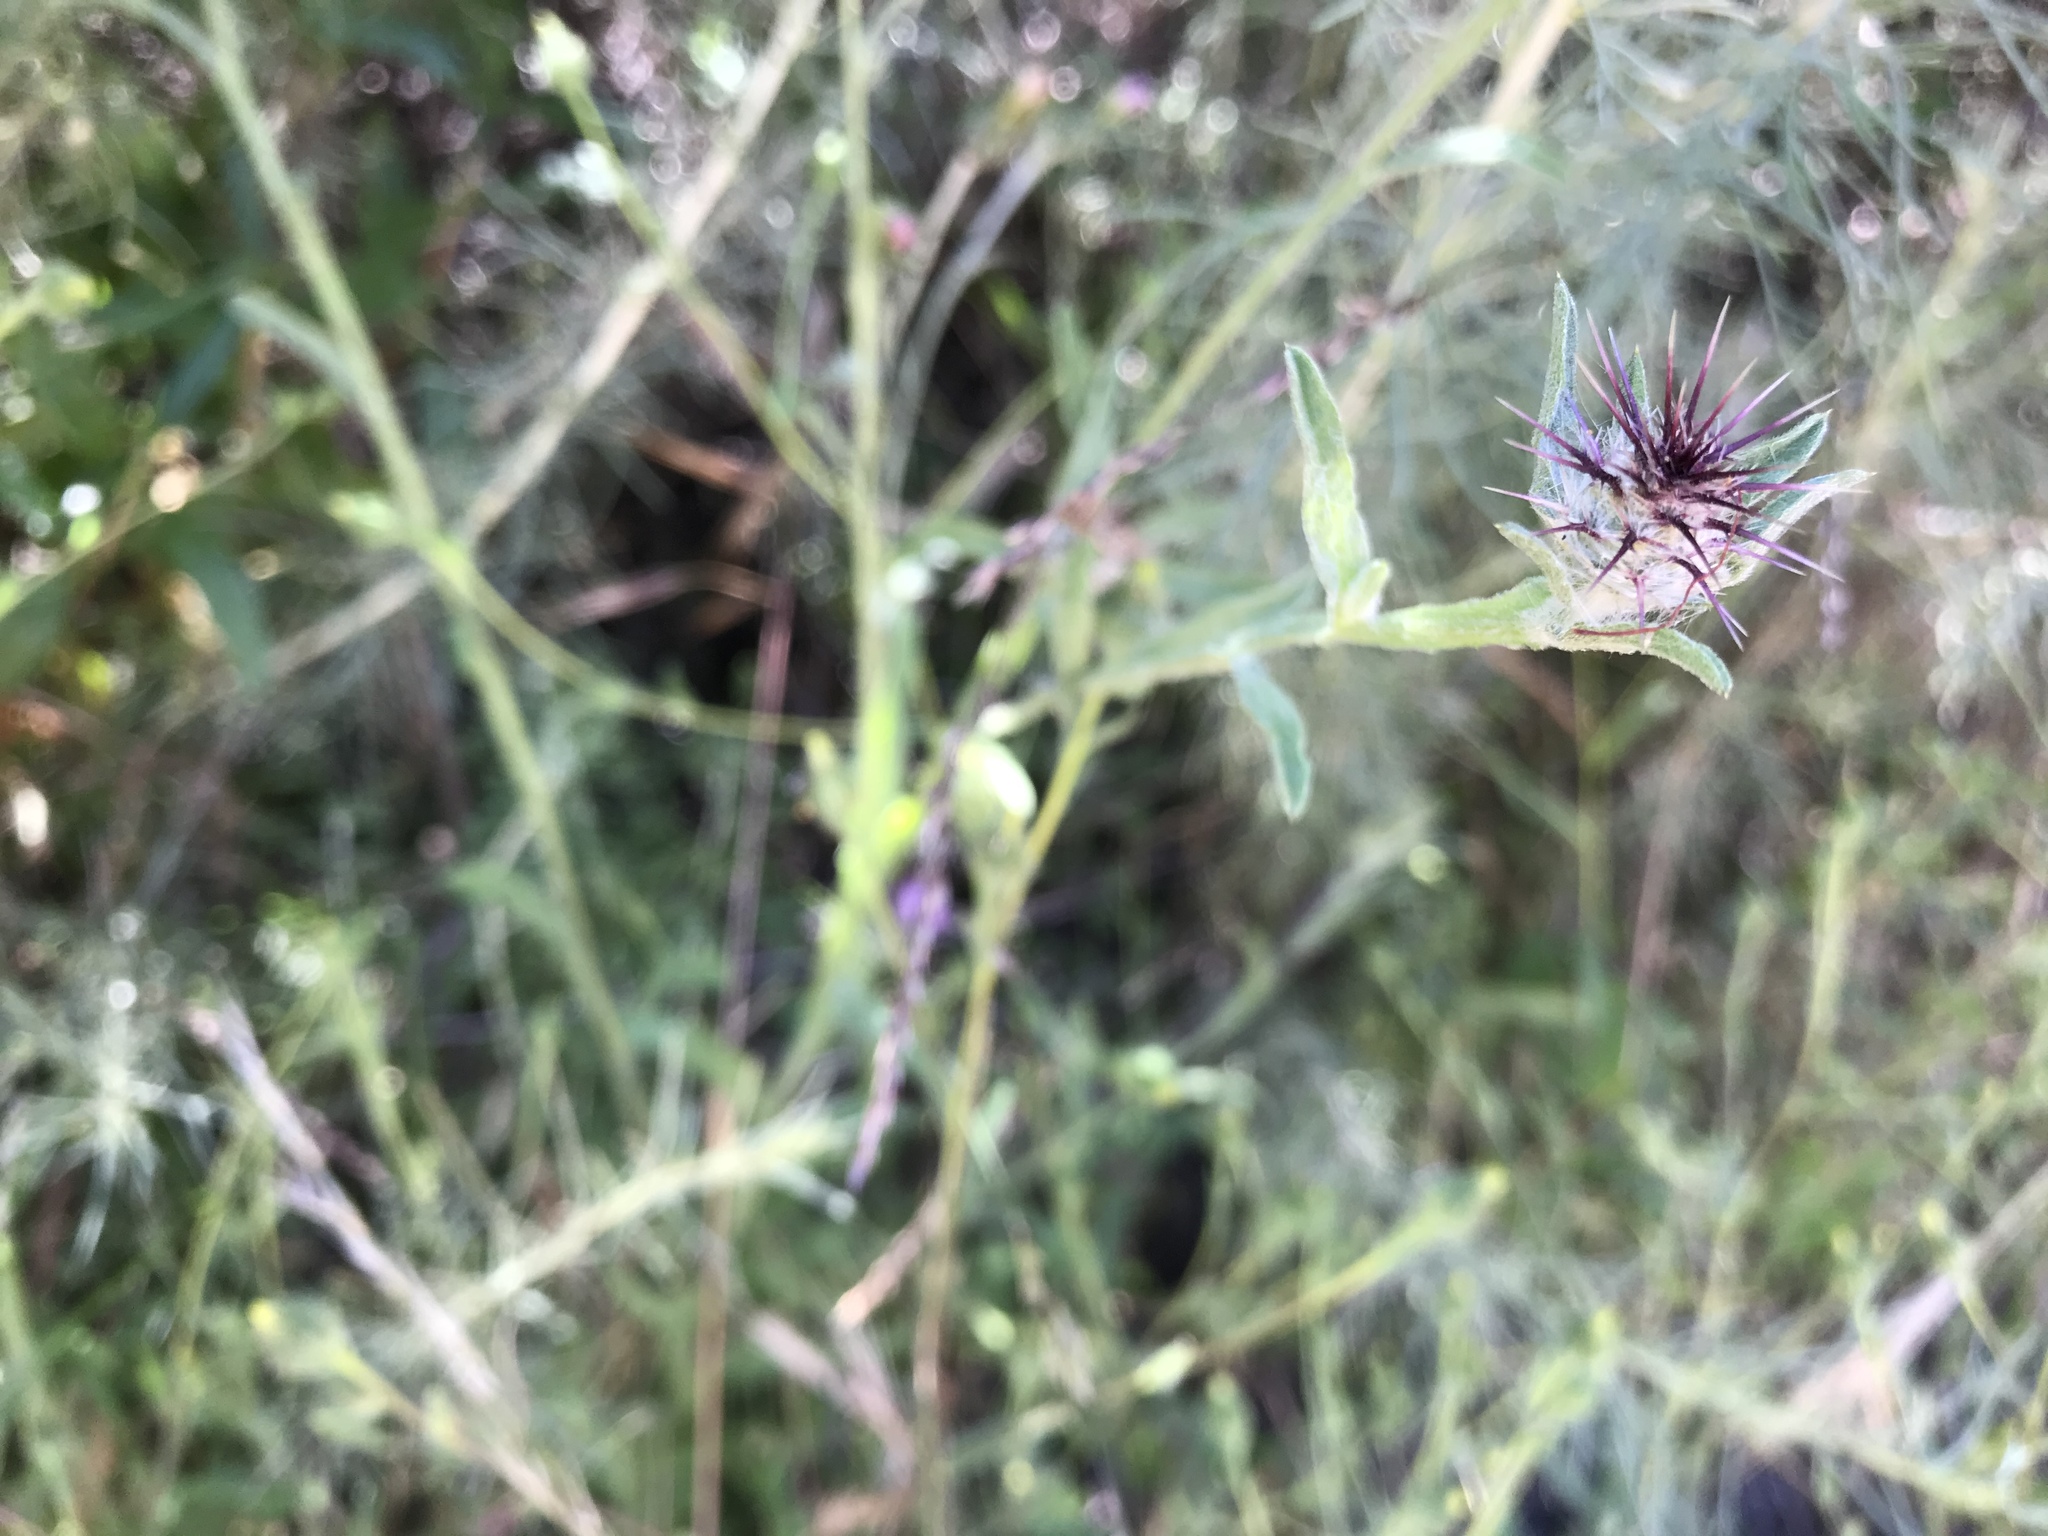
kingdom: Plantae
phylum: Tracheophyta
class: Magnoliopsida
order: Asterales
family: Asteraceae
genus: Centaurea
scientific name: Centaurea melitensis
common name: Maltese star-thistle
